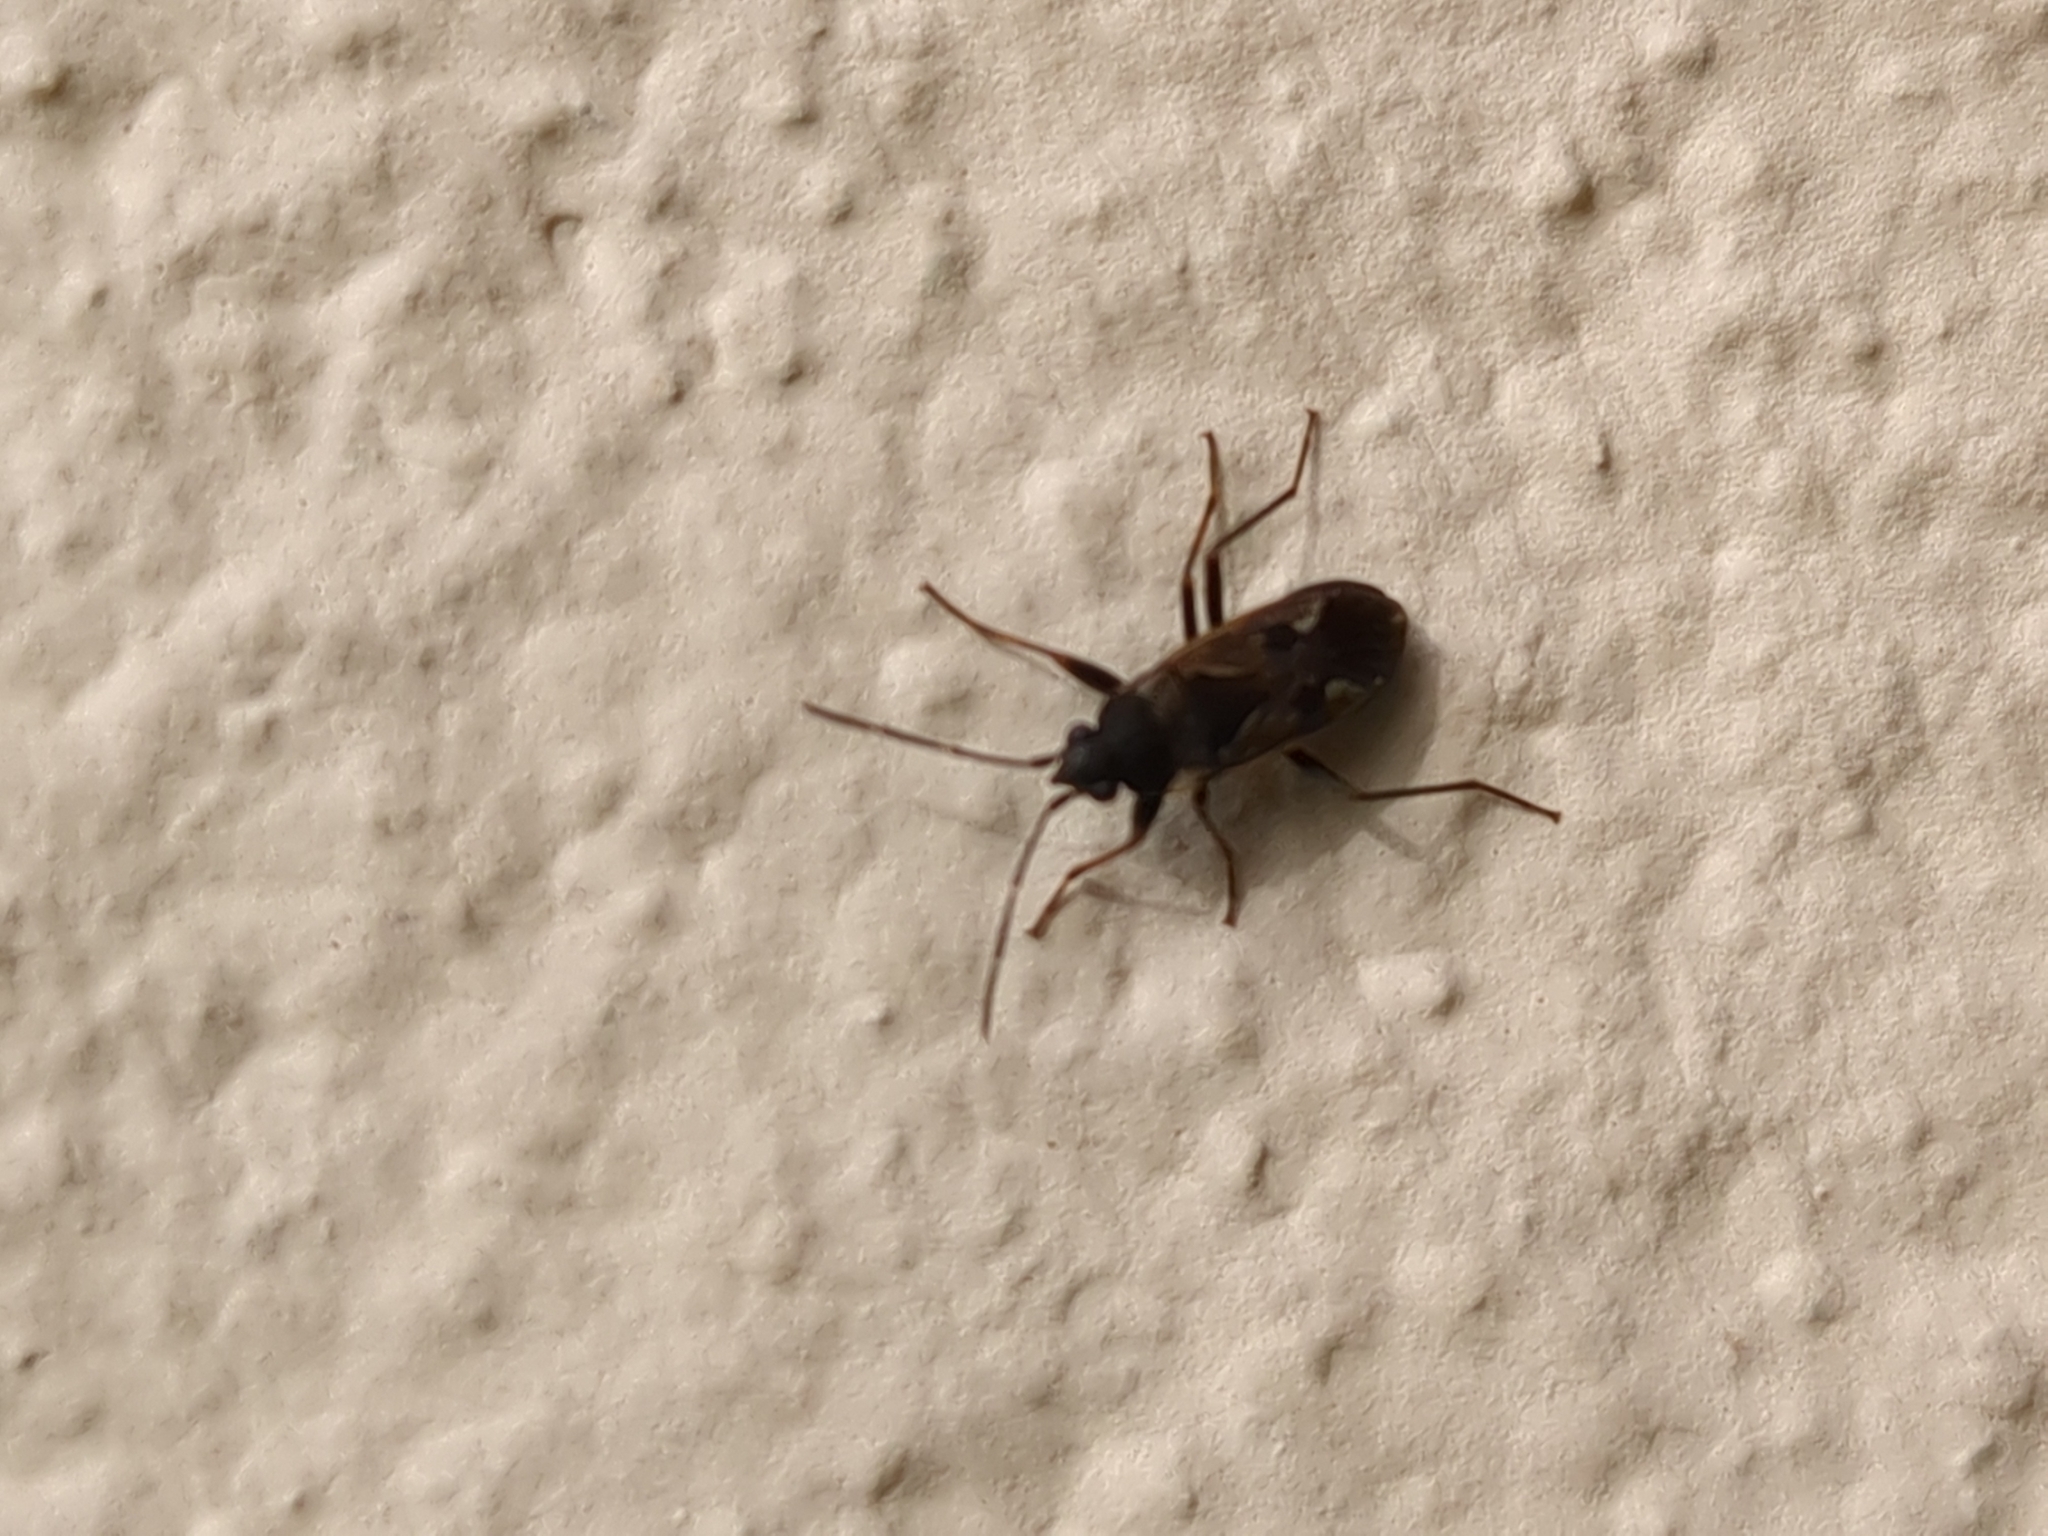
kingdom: Animalia
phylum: Arthropoda
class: Insecta
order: Hemiptera
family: Rhyparochromidae
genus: Rhyparochromus
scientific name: Rhyparochromus vulgaris
